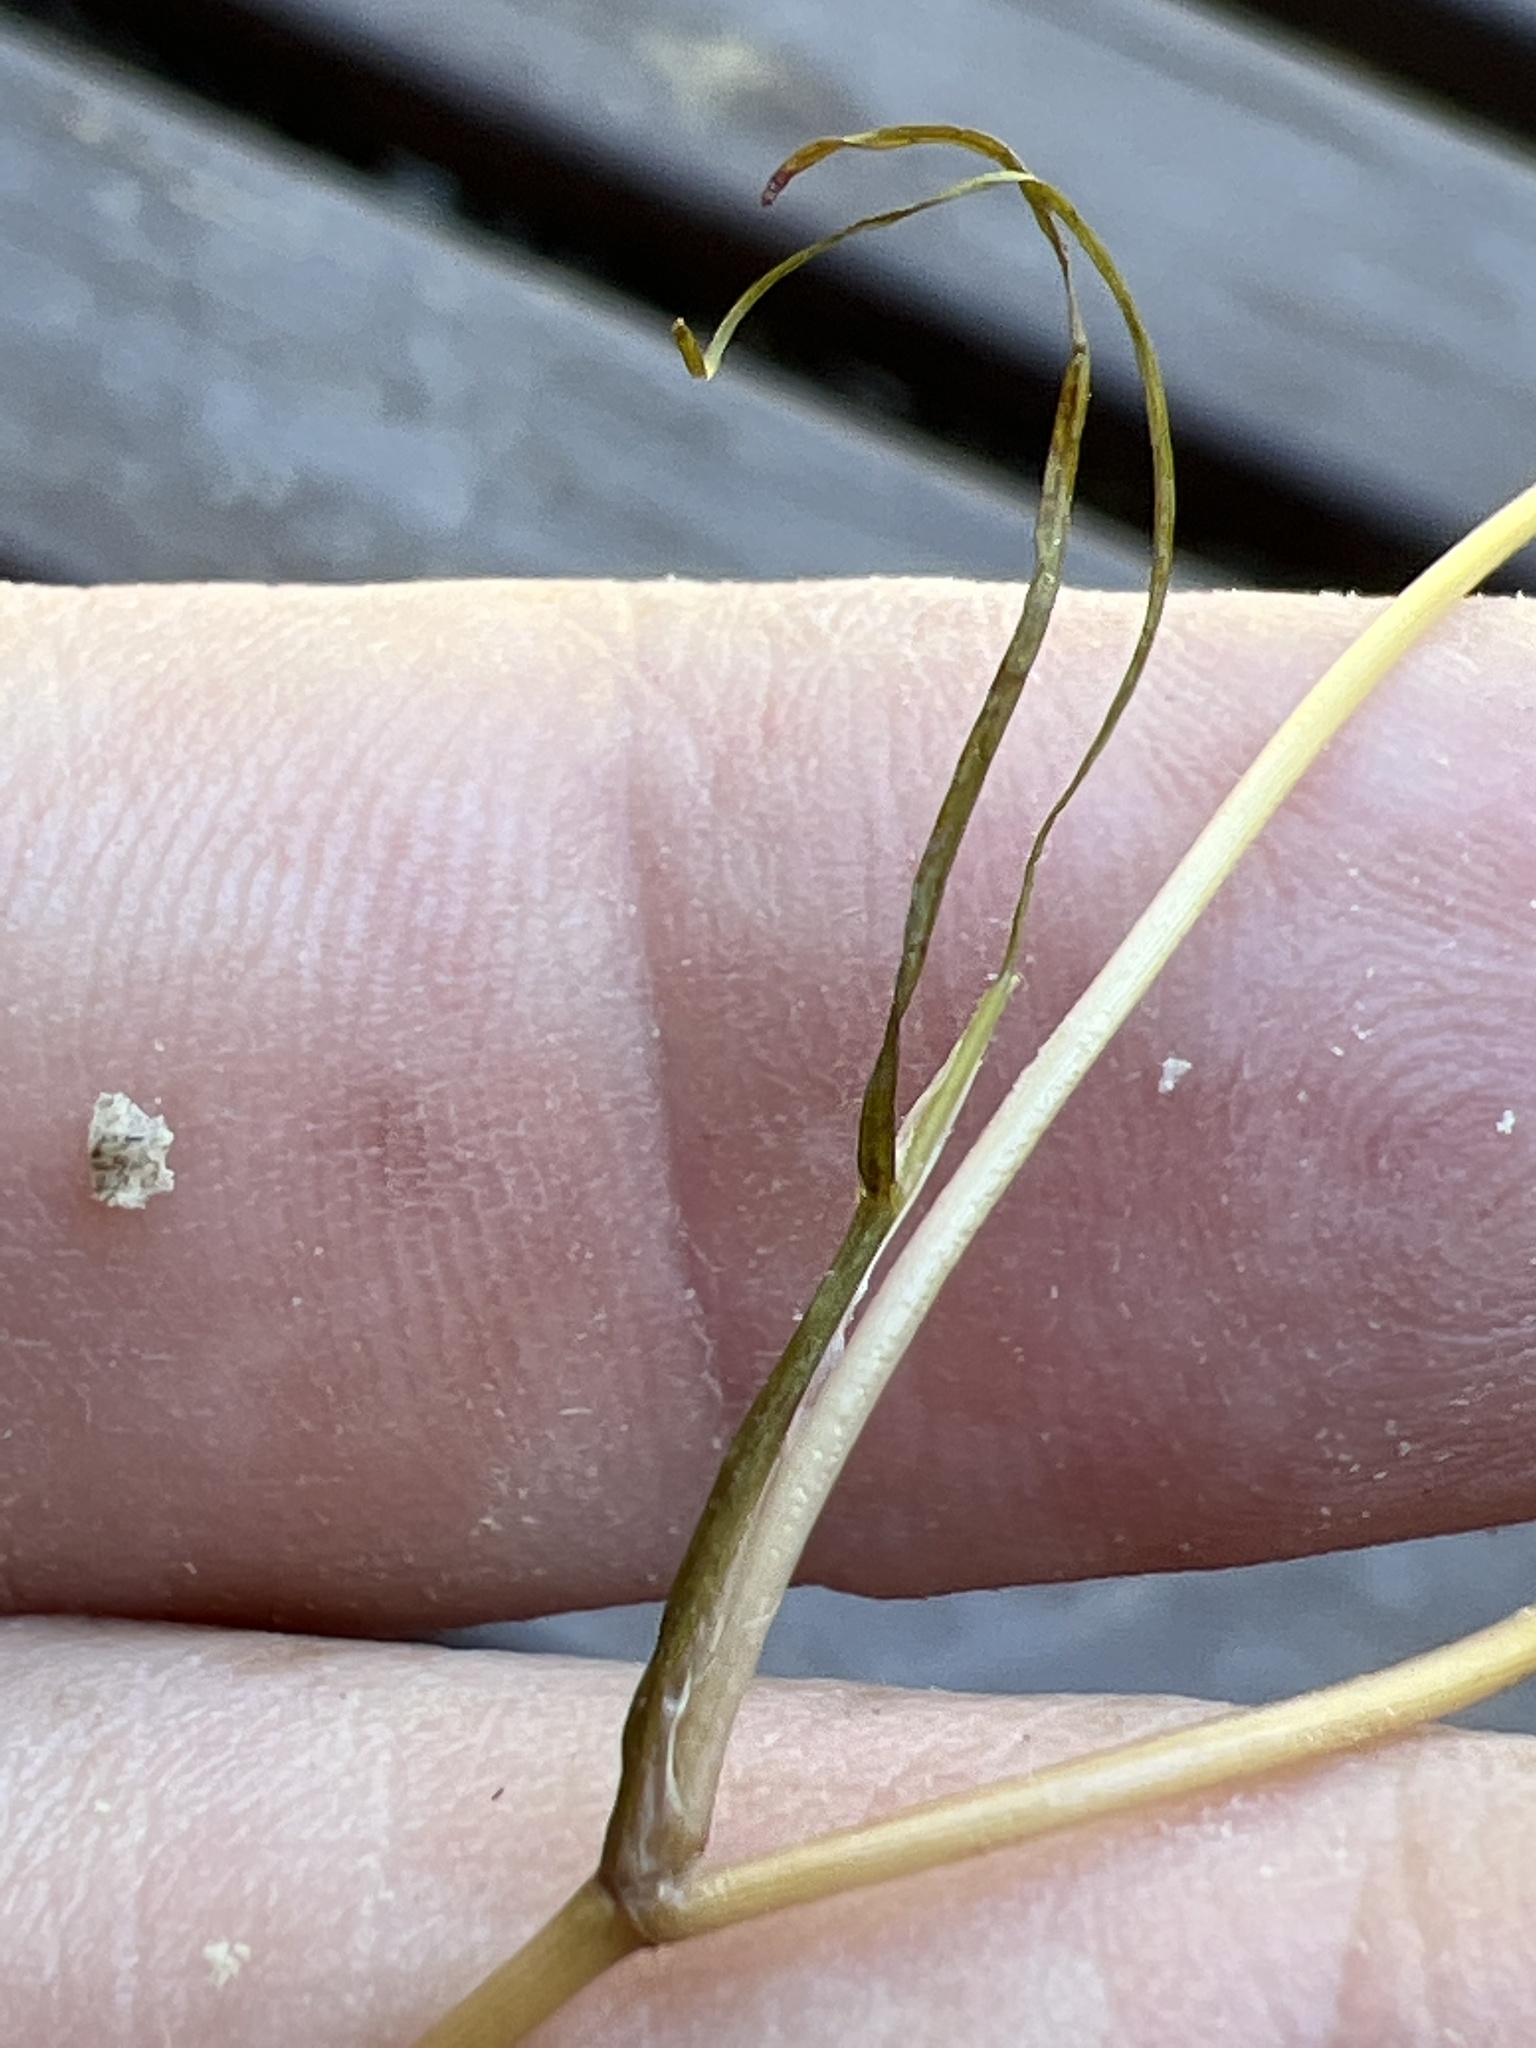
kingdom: Plantae
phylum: Tracheophyta
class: Liliopsida
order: Alismatales
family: Potamogetonaceae
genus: Stuckenia
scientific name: Stuckenia pectinata
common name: Sago pondweed
